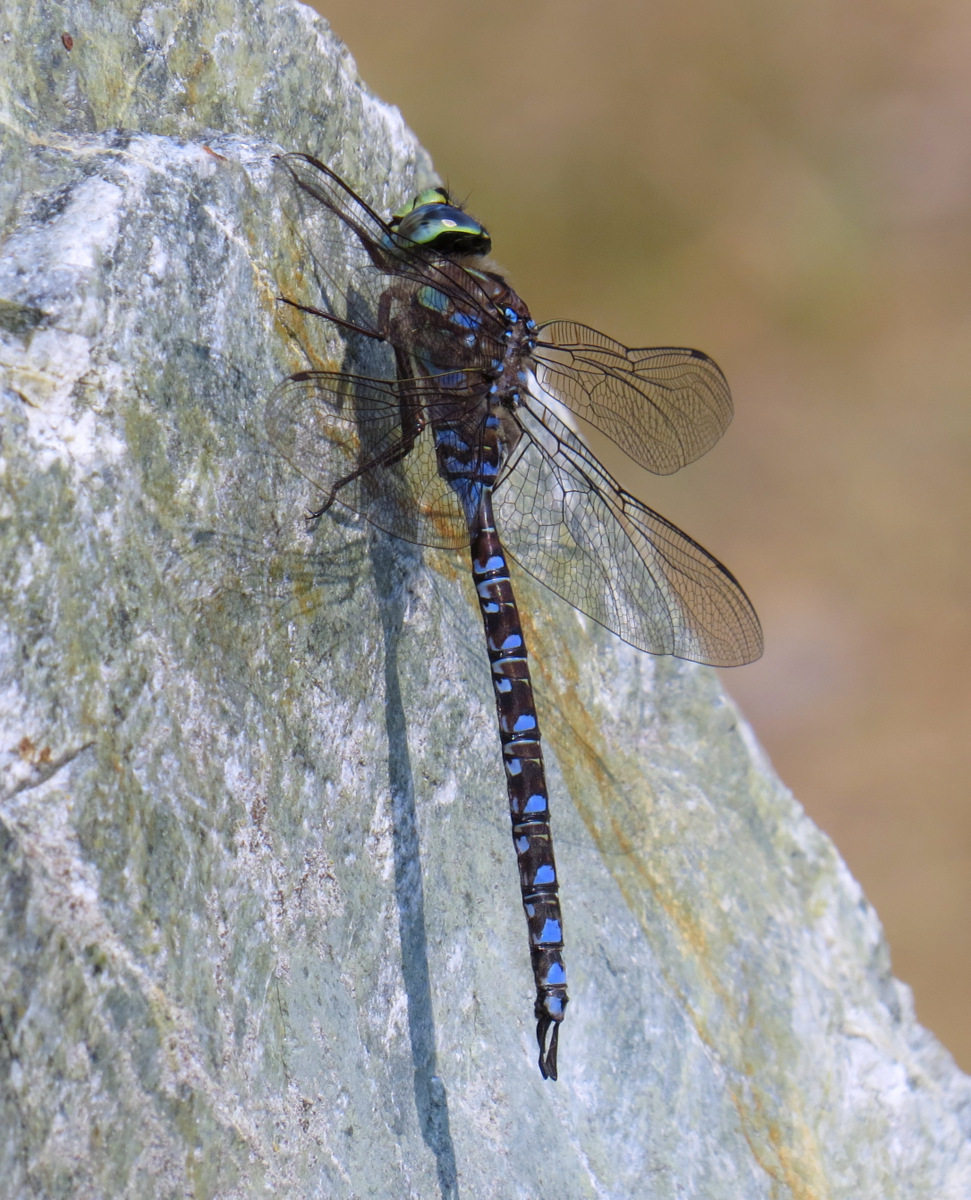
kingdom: Animalia
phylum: Arthropoda
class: Insecta
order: Odonata
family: Aeshnidae
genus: Aeshna
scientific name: Aeshna eremita
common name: Lake darner
